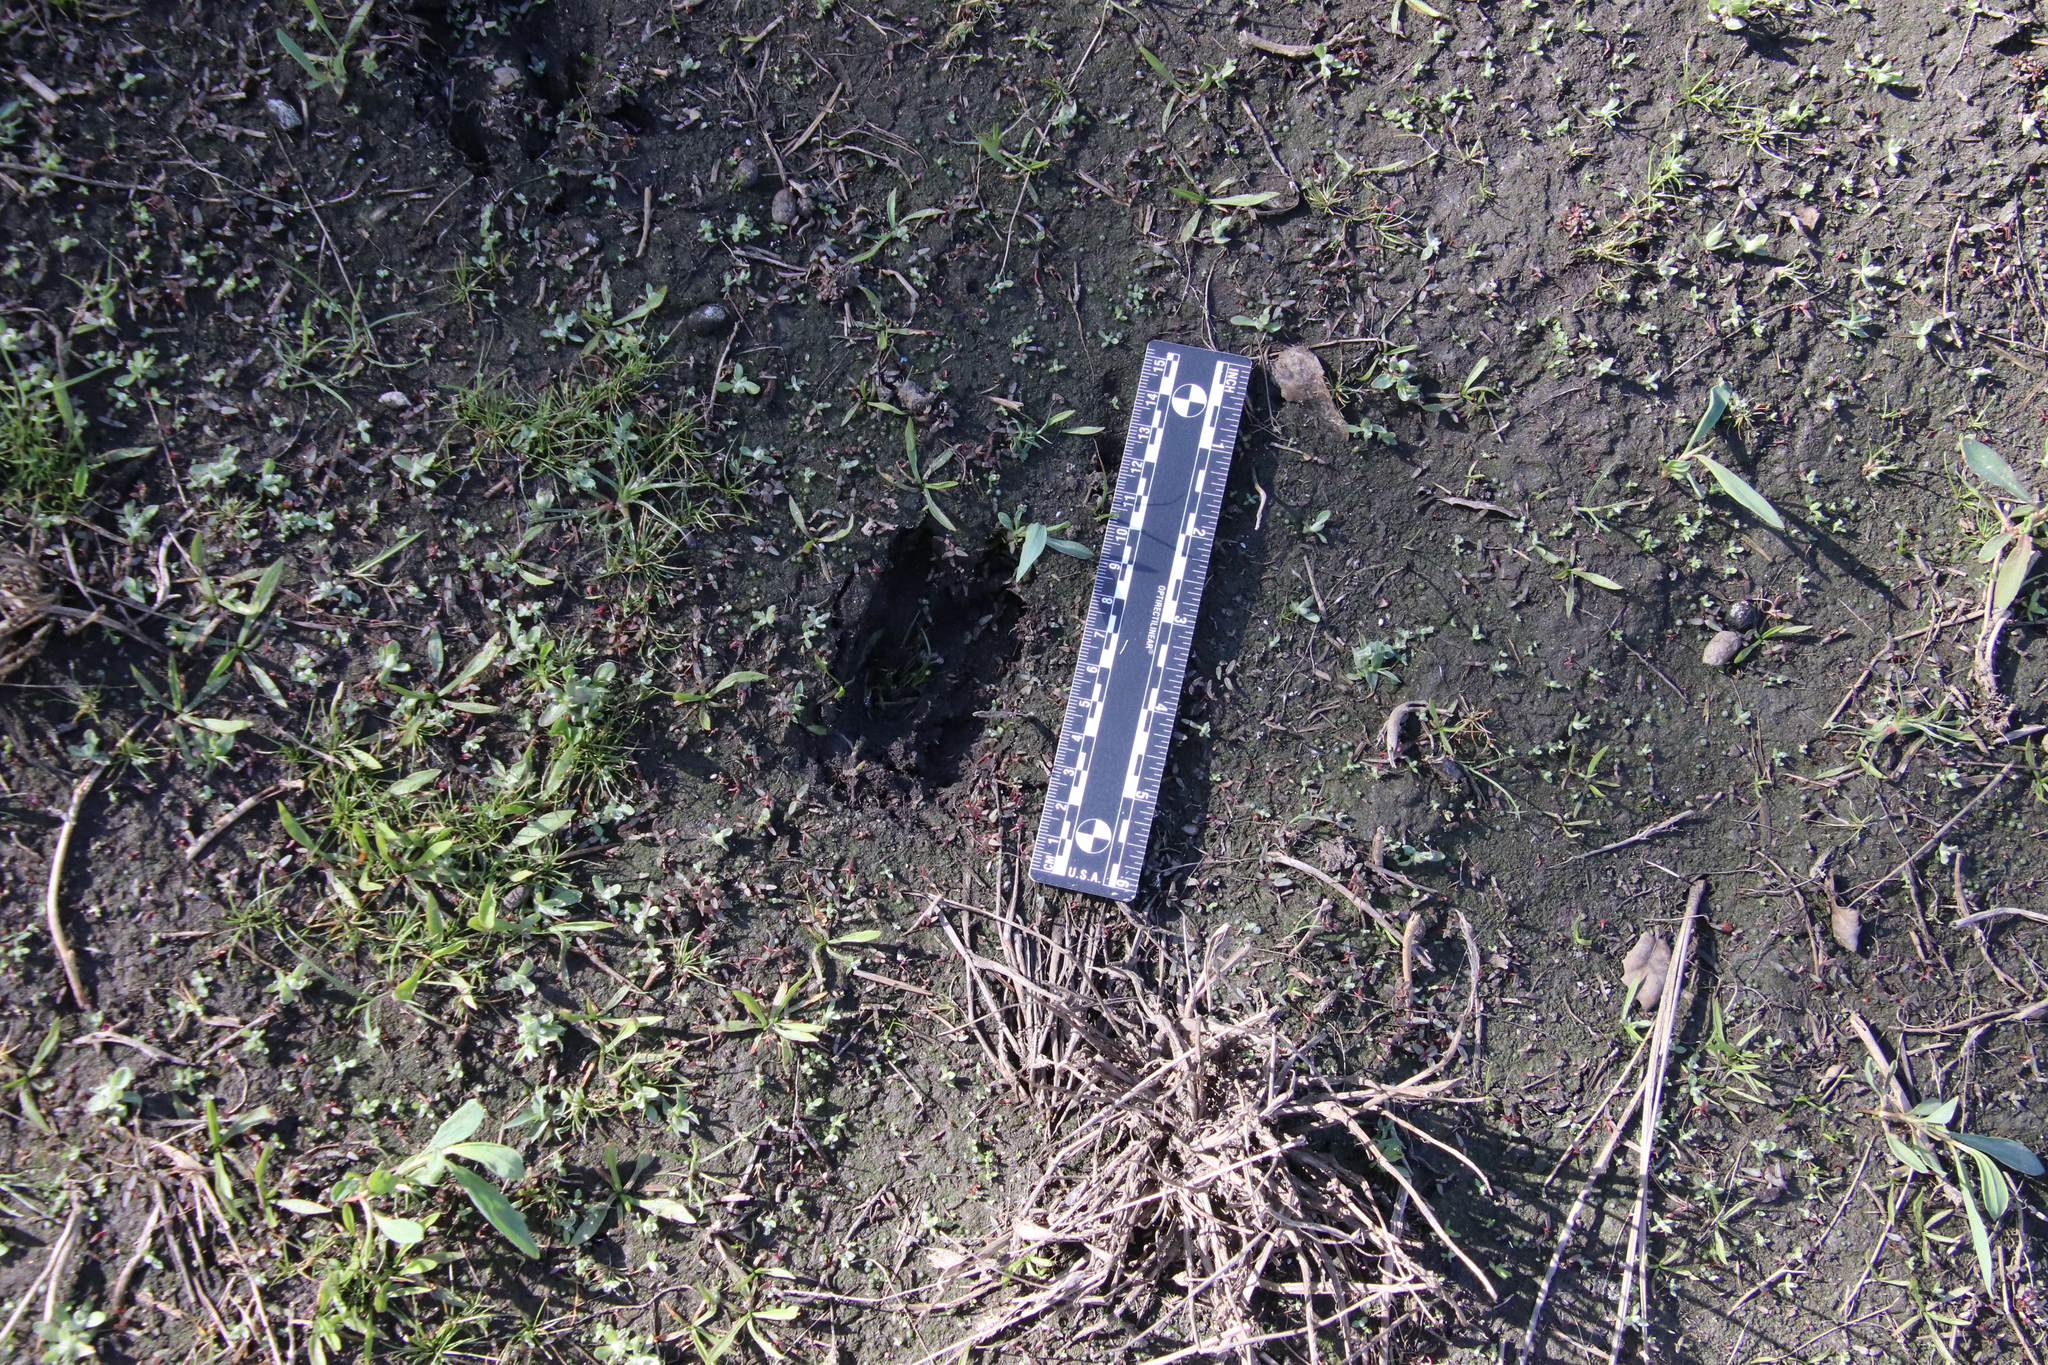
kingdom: Animalia
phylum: Chordata
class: Mammalia
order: Artiodactyla
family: Cervidae
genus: Odocoileus
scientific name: Odocoileus hemionus
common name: Mule deer
